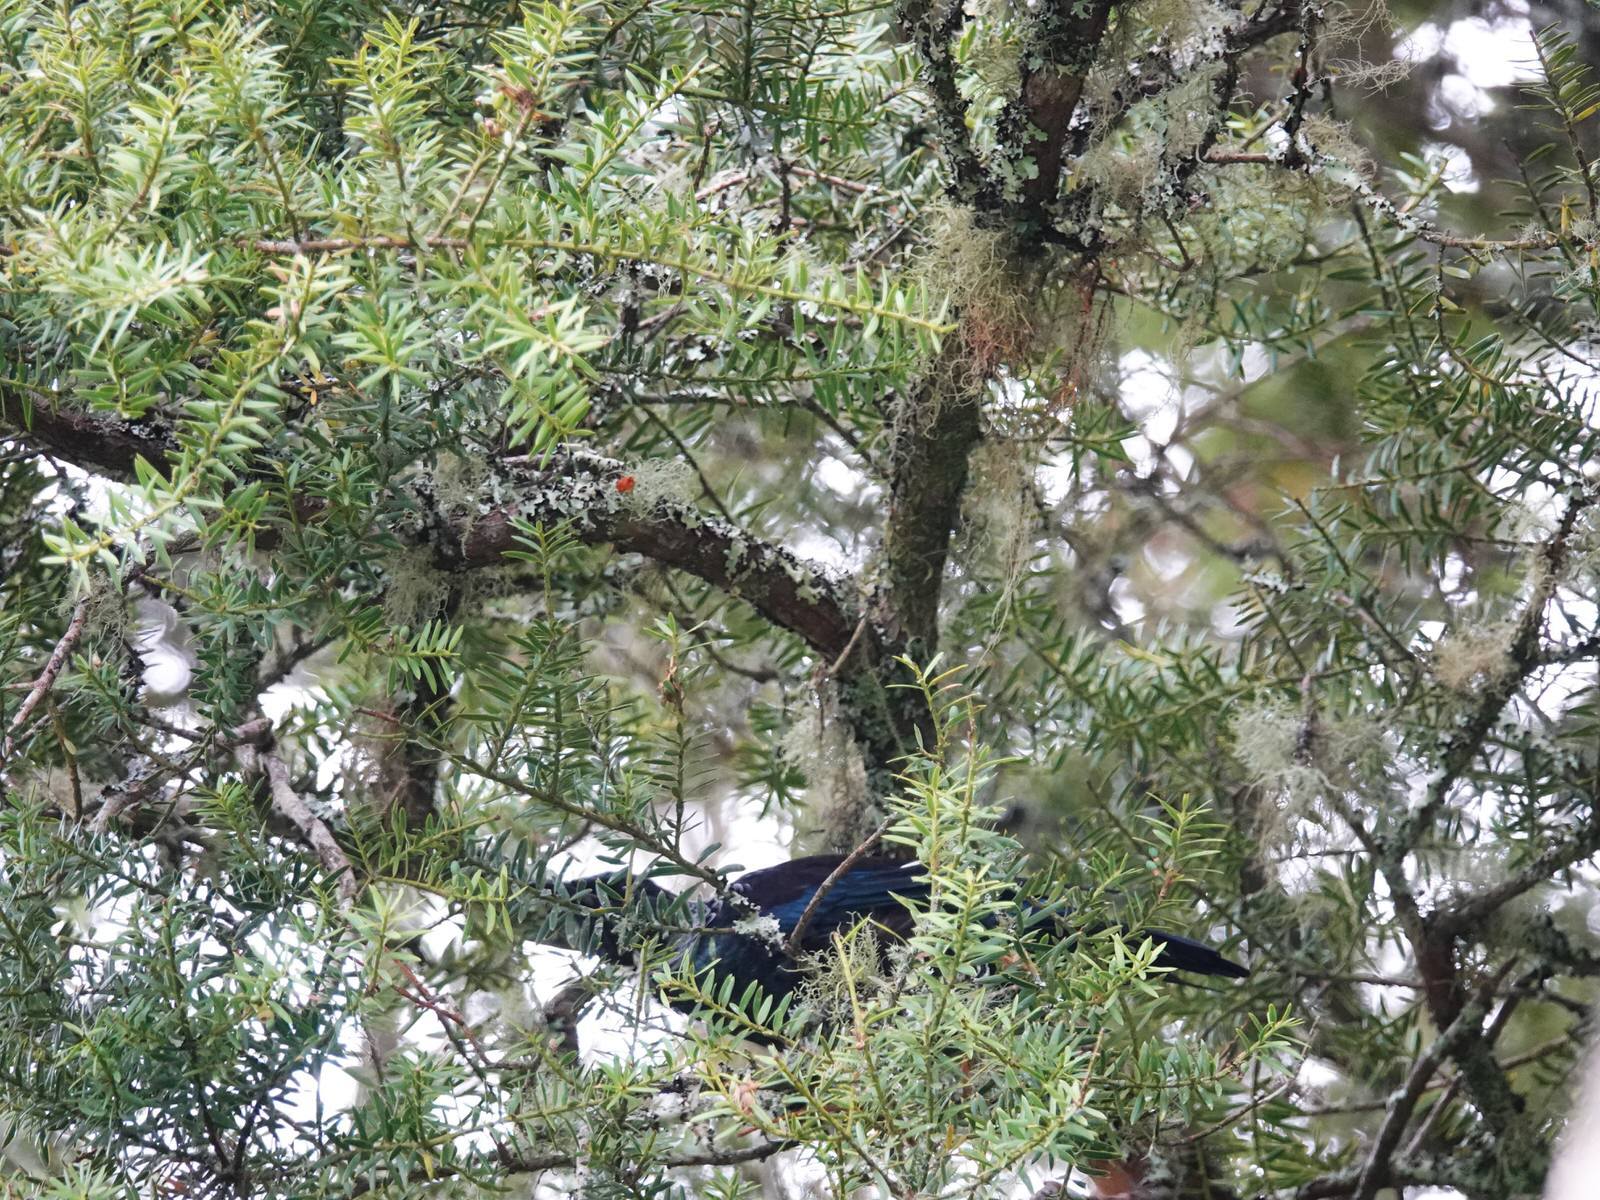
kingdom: Animalia
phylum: Chordata
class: Aves
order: Passeriformes
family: Meliphagidae
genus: Prosthemadera
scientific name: Prosthemadera novaeseelandiae
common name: Tui
